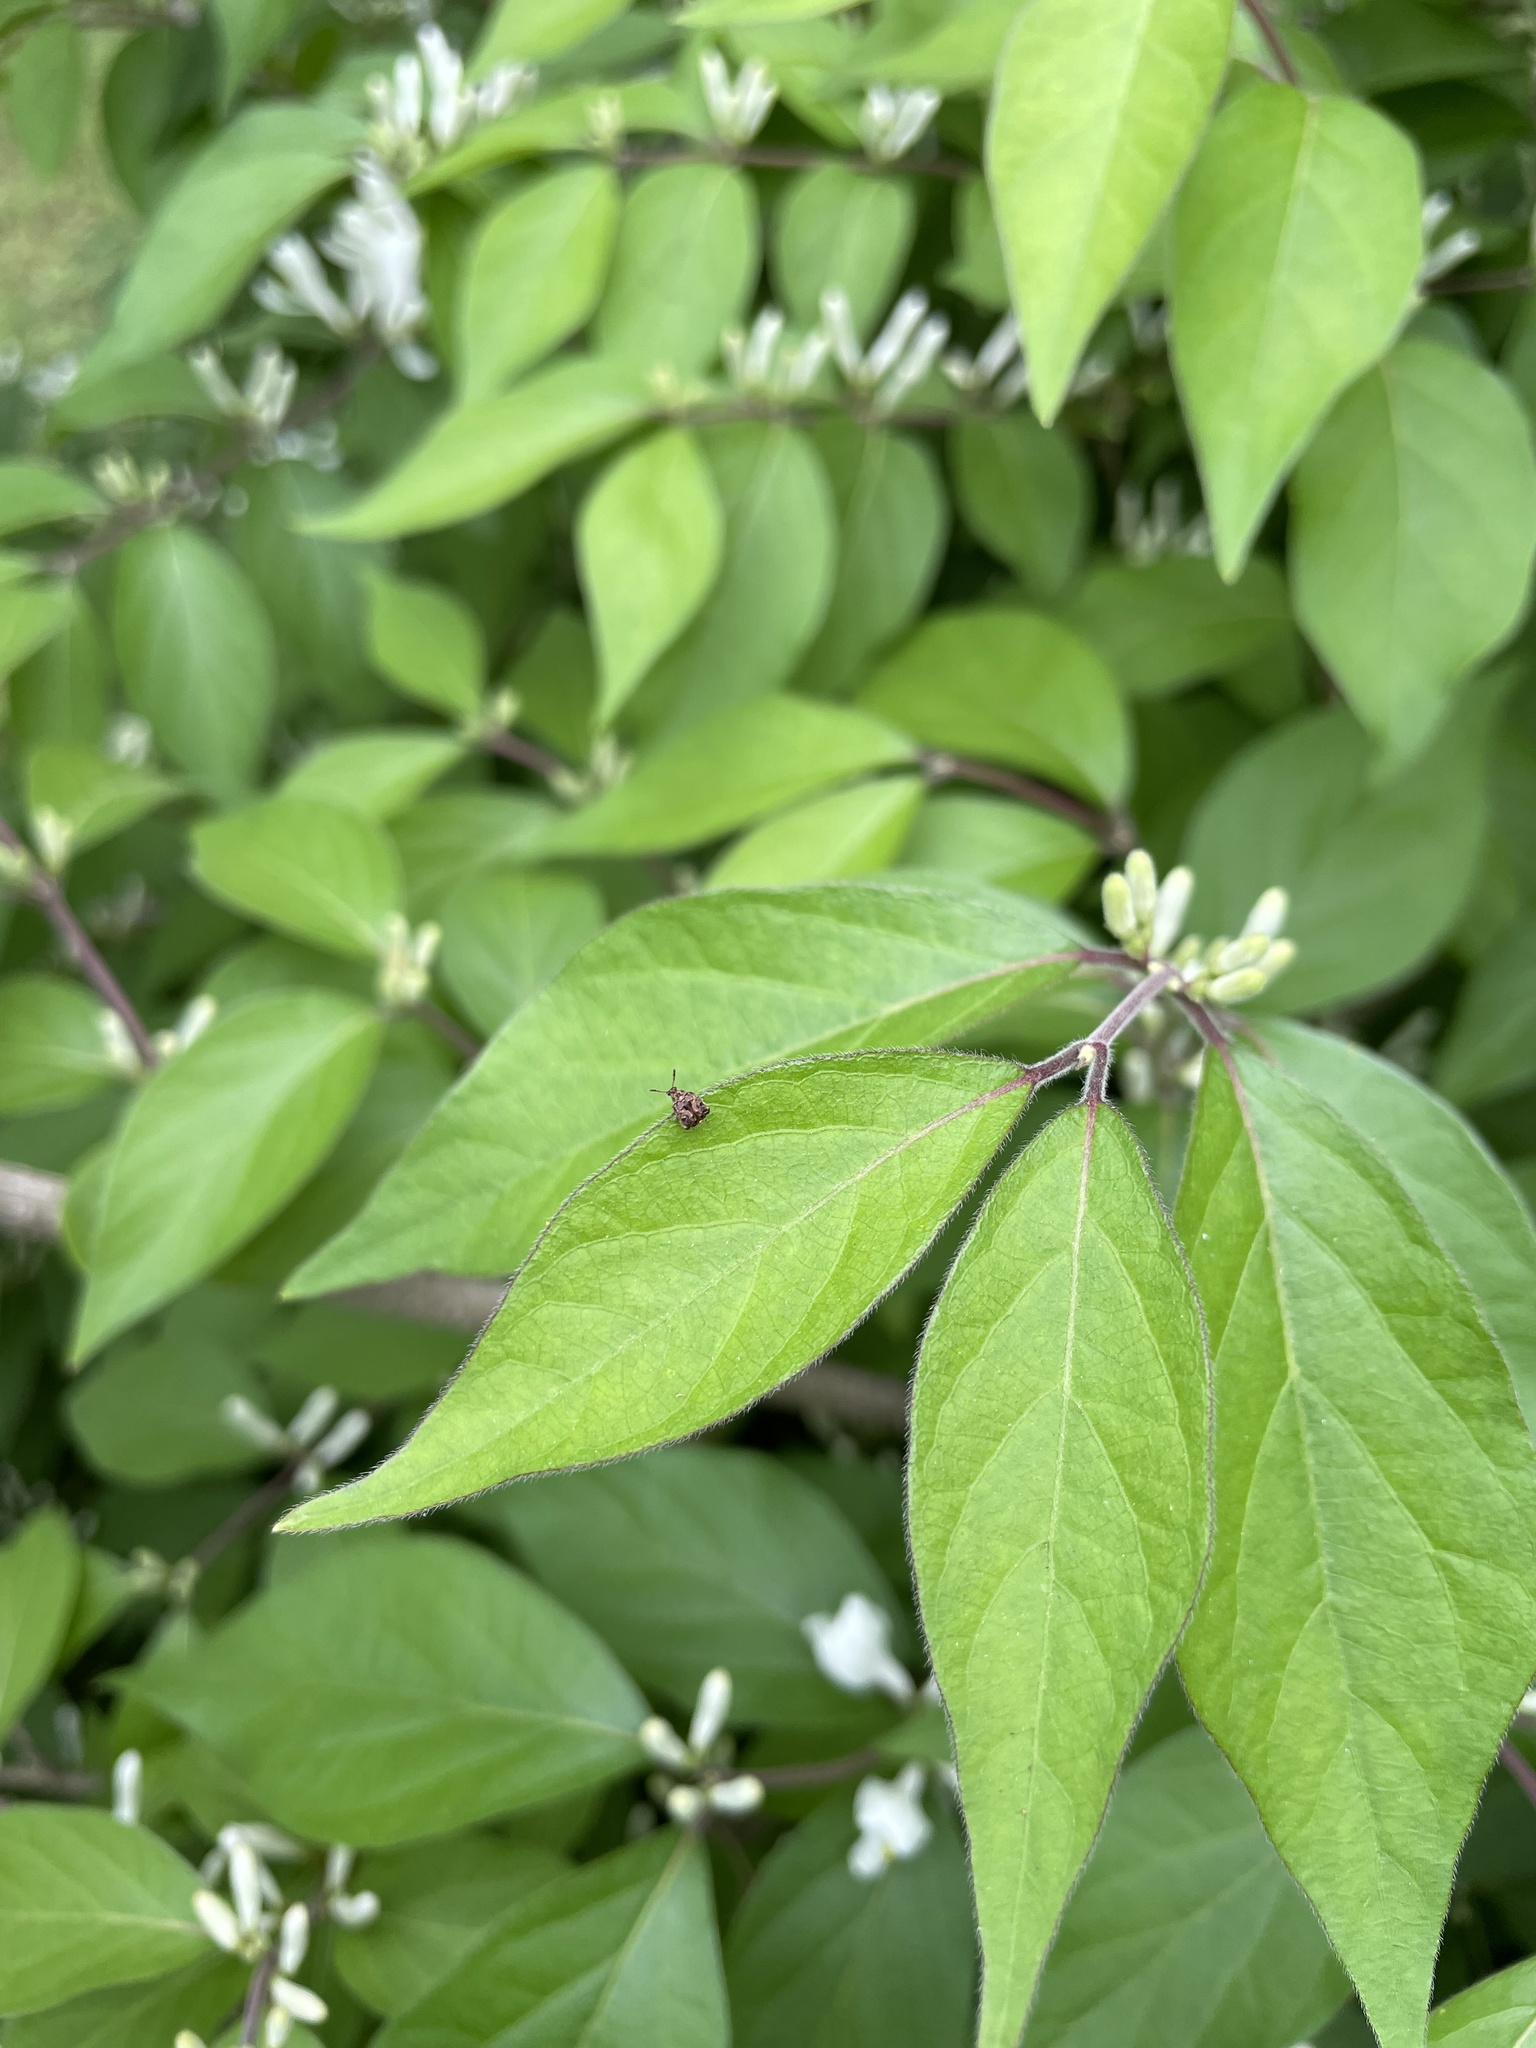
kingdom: Animalia
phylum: Arthropoda
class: Insecta
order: Coleoptera
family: Chrysomelidae
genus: Gibbobruchus
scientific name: Gibbobruchus mimus
